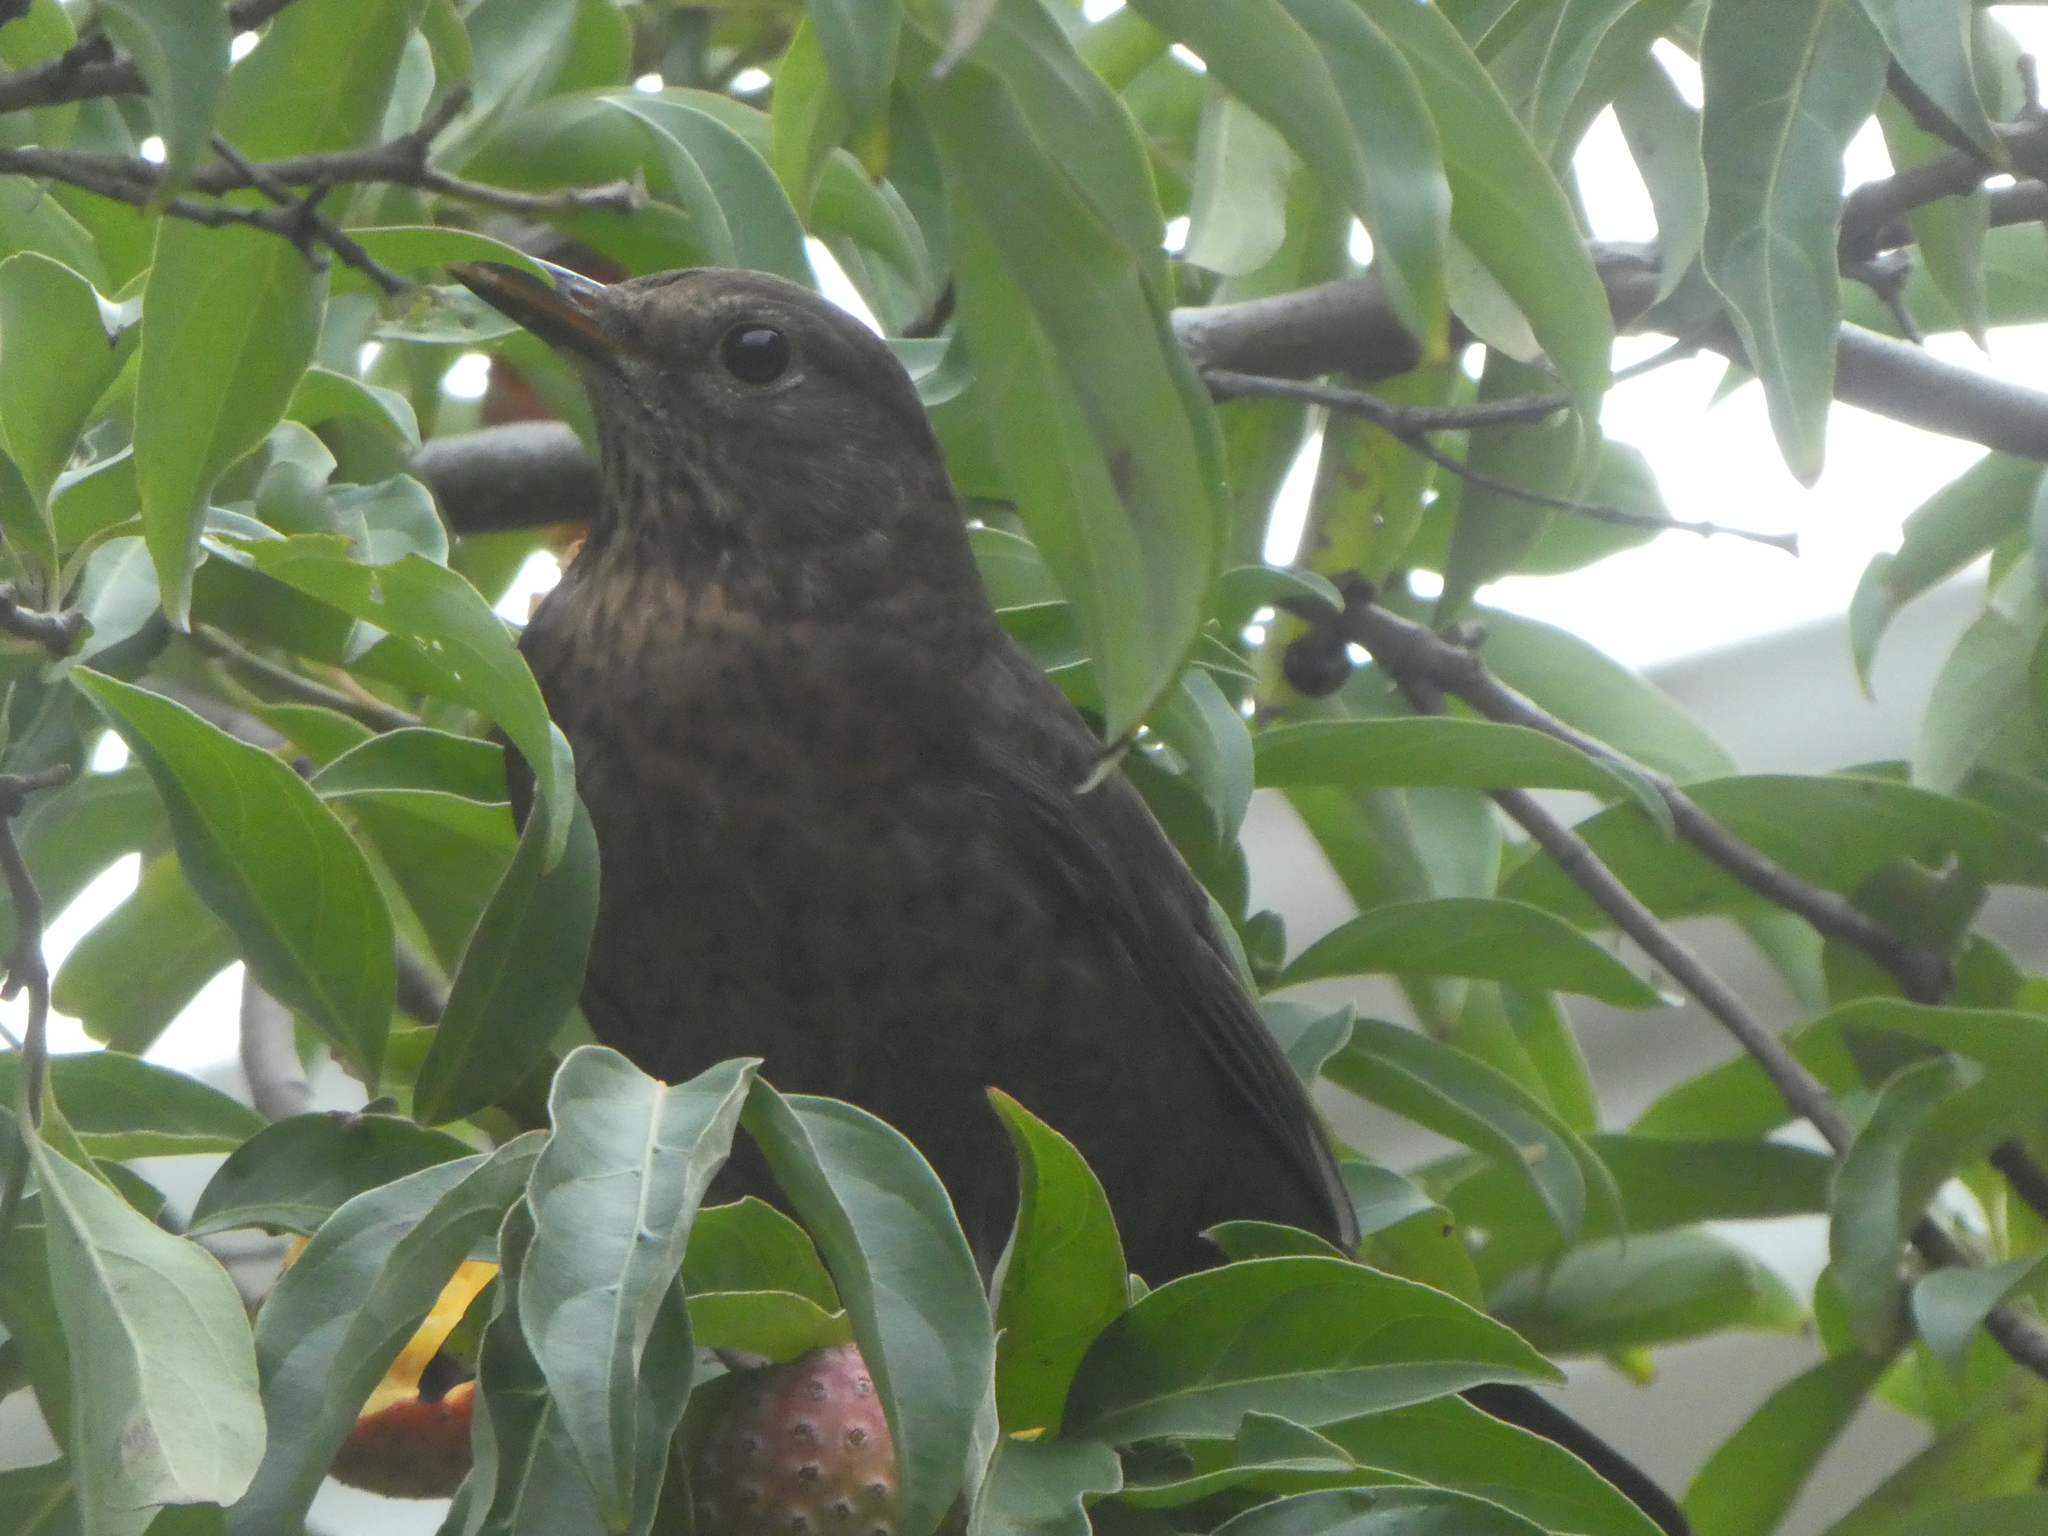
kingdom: Animalia
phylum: Chordata
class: Aves
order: Passeriformes
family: Turdidae
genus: Turdus
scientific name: Turdus merula
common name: Common blackbird
